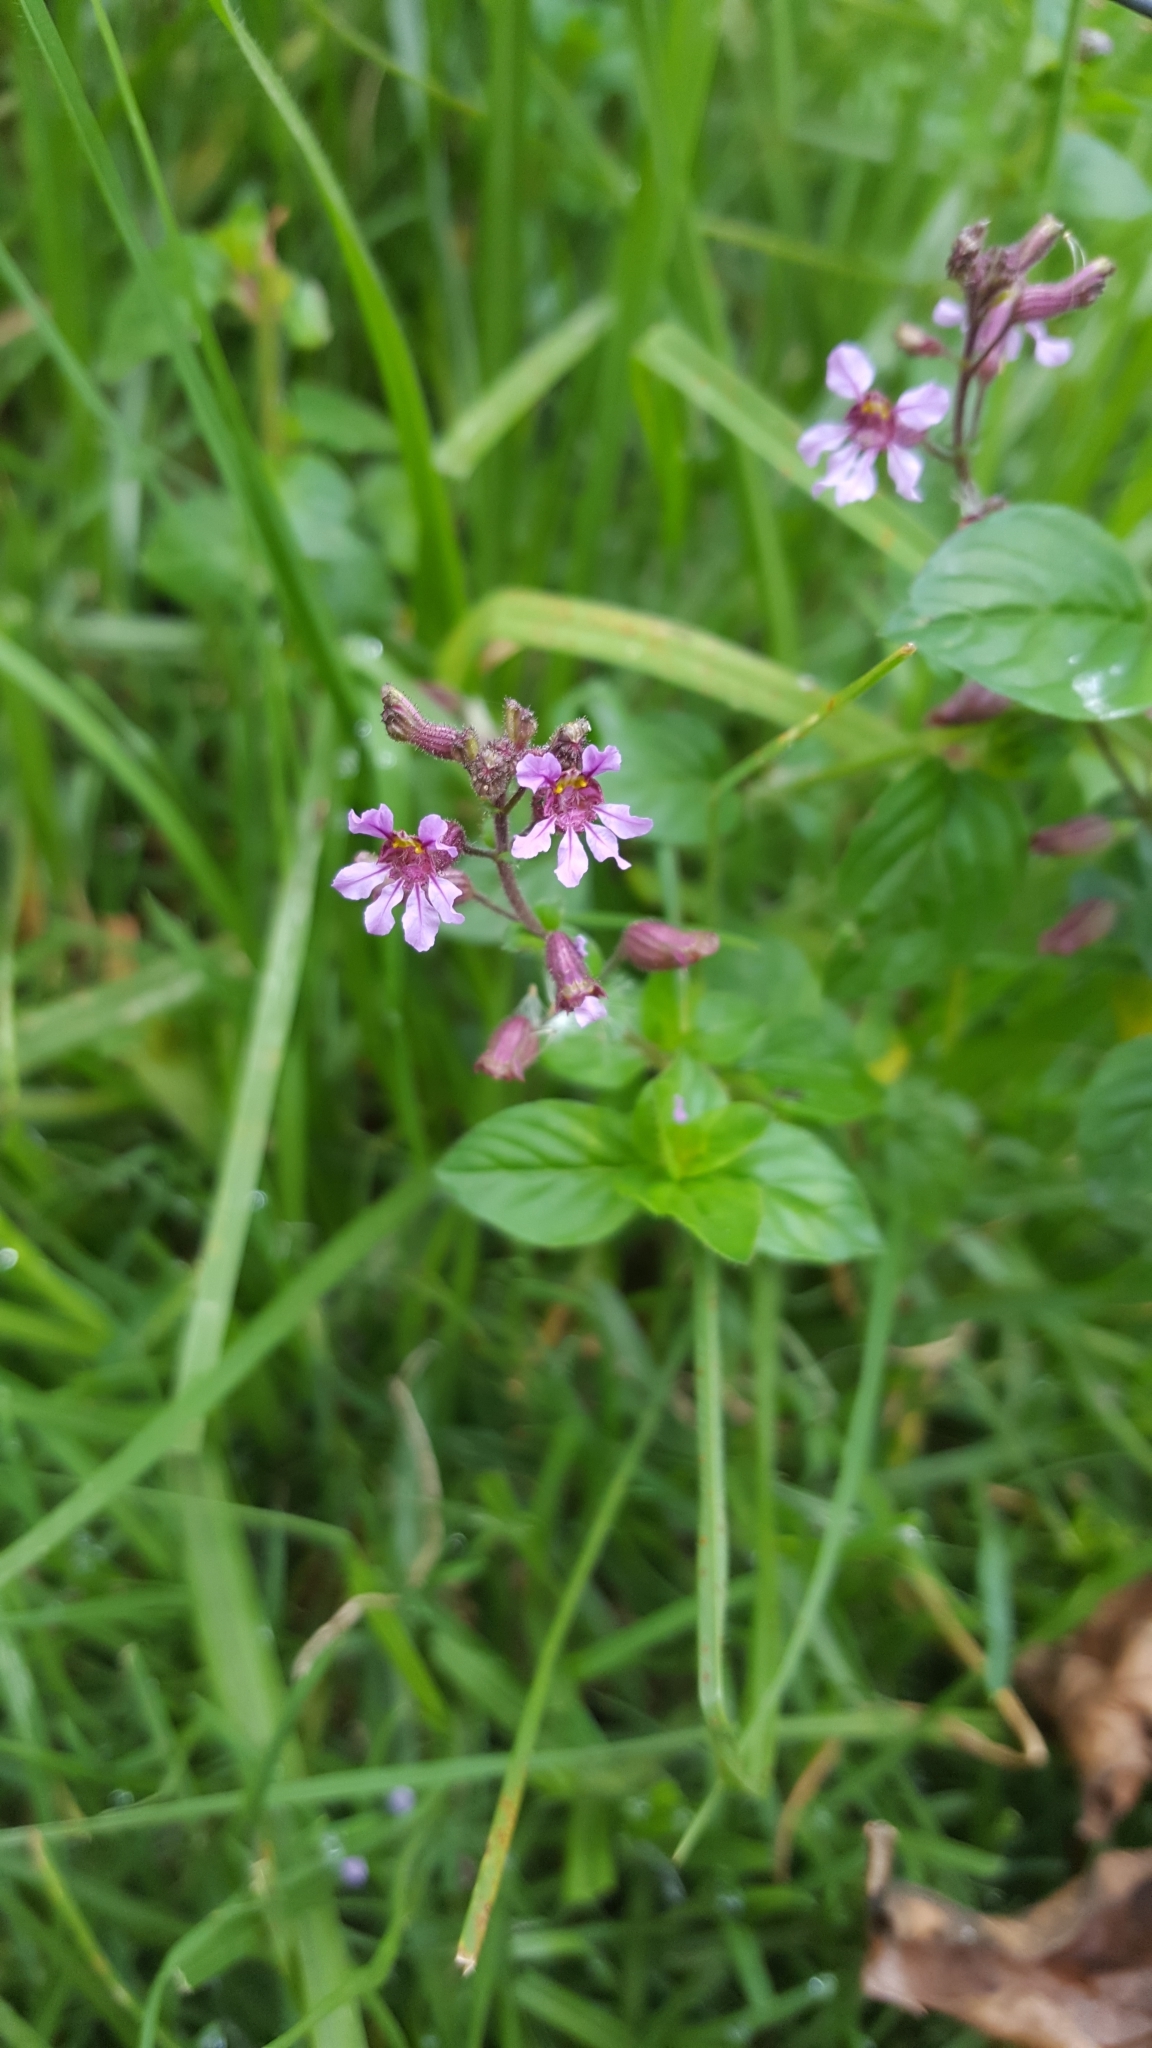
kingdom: Plantae
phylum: Tracheophyta
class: Magnoliopsida
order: Myrtales
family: Lythraceae
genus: Cuphea
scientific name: Cuphea racemosa
